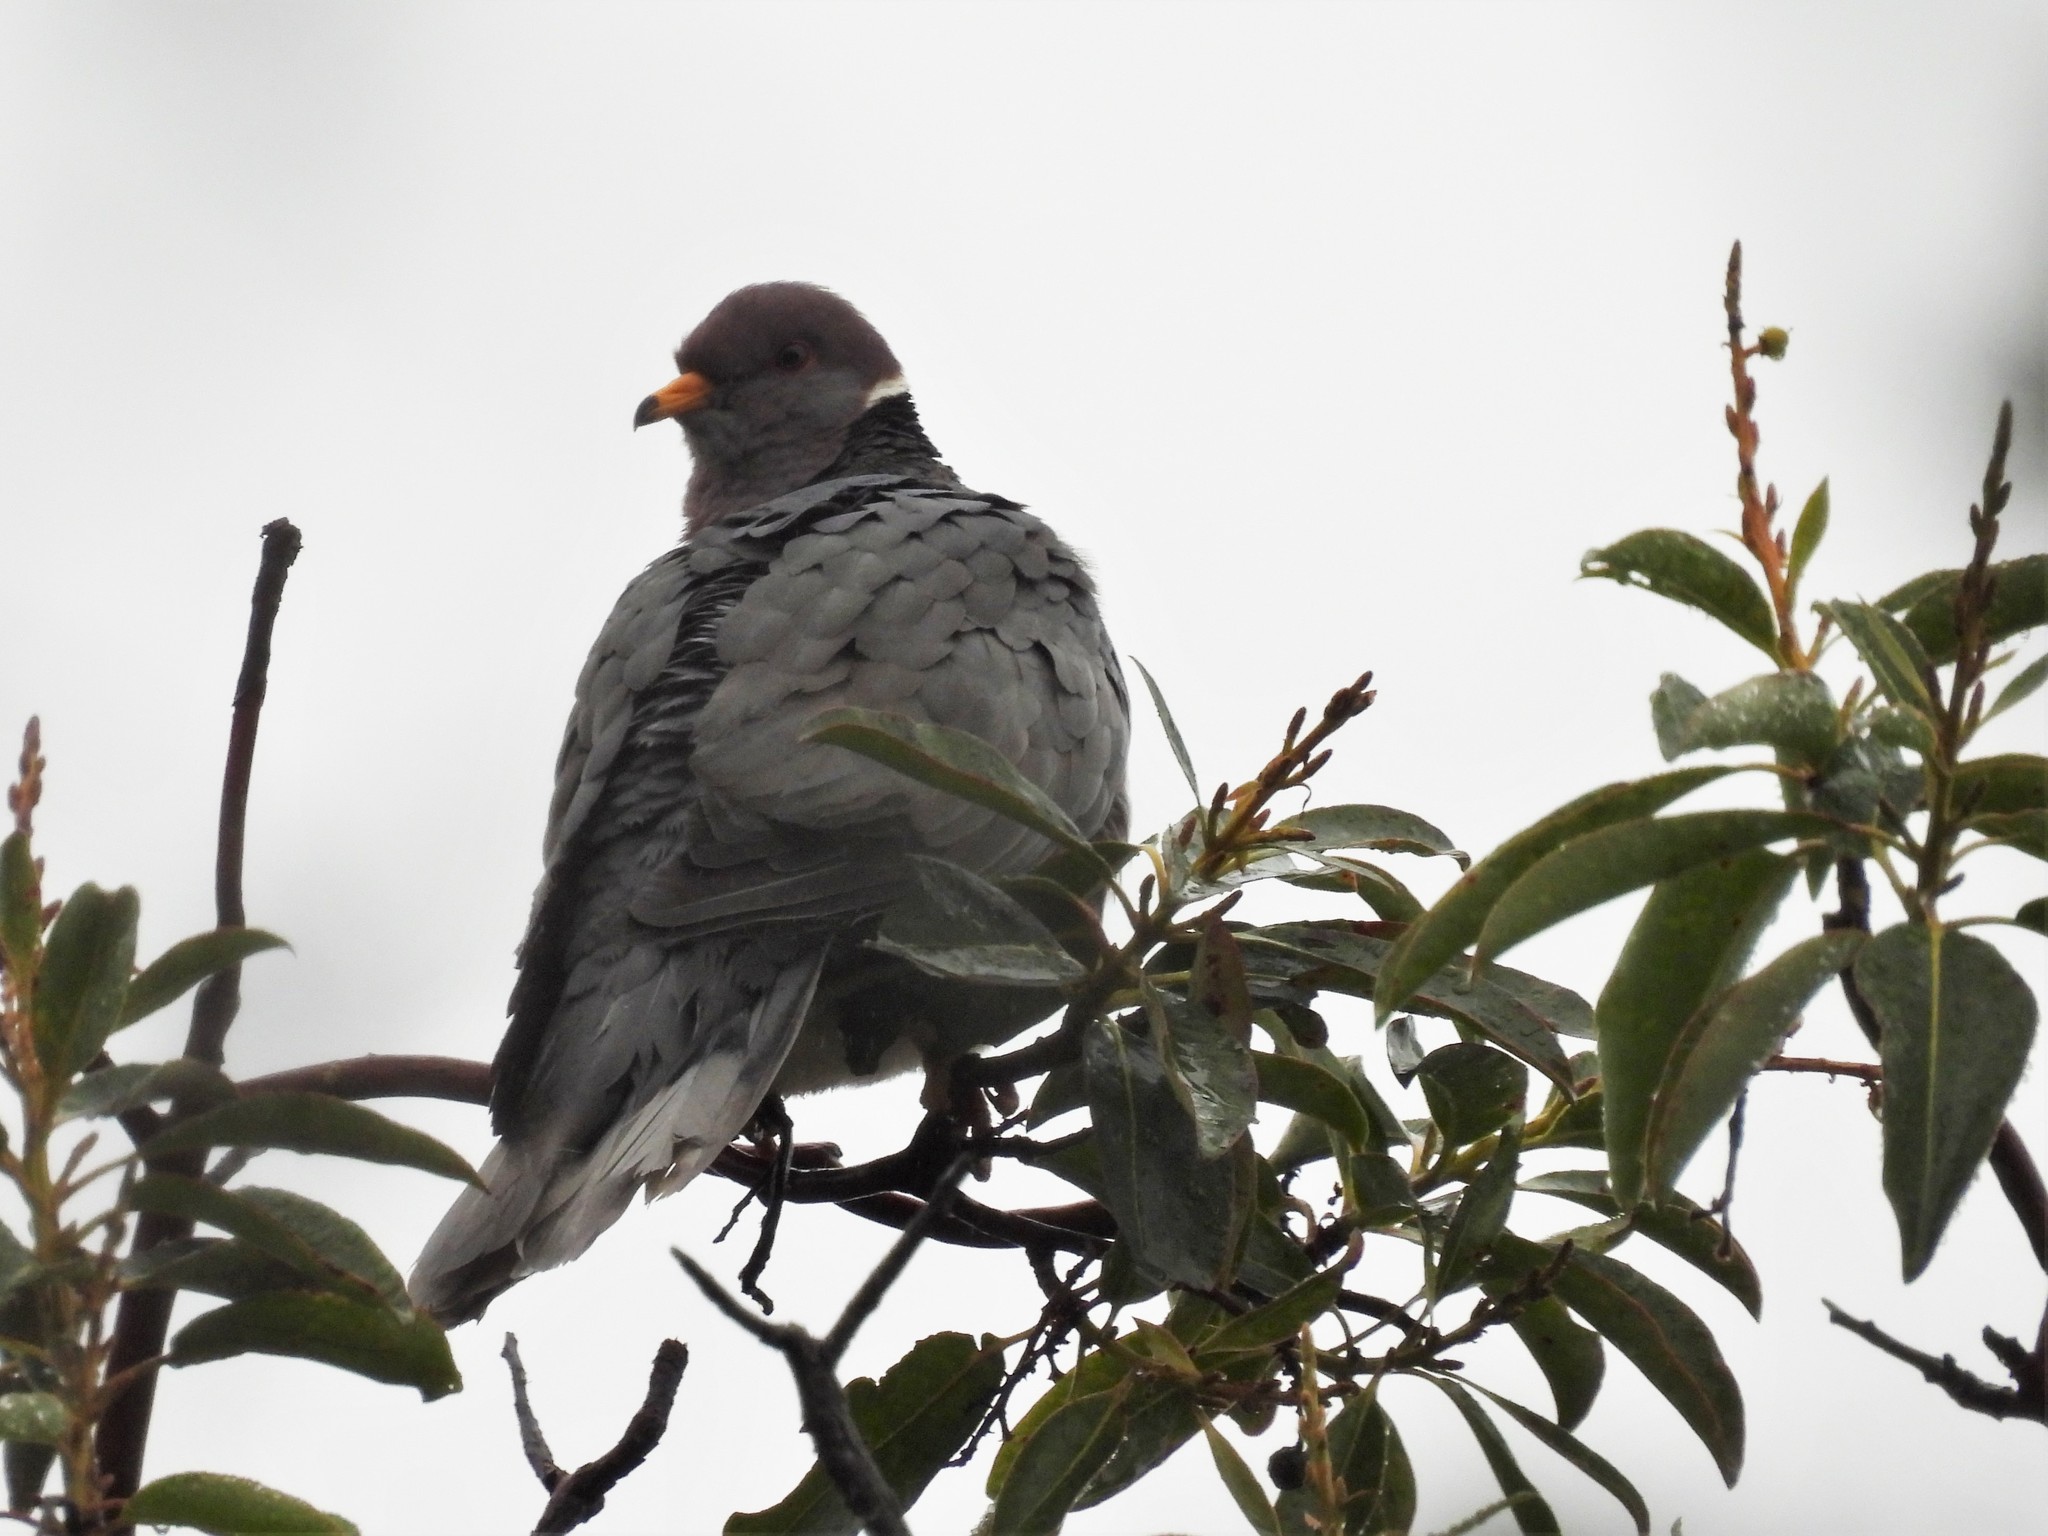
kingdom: Animalia
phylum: Chordata
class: Aves
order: Columbiformes
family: Columbidae
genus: Patagioenas
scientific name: Patagioenas fasciata
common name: Band-tailed pigeon
